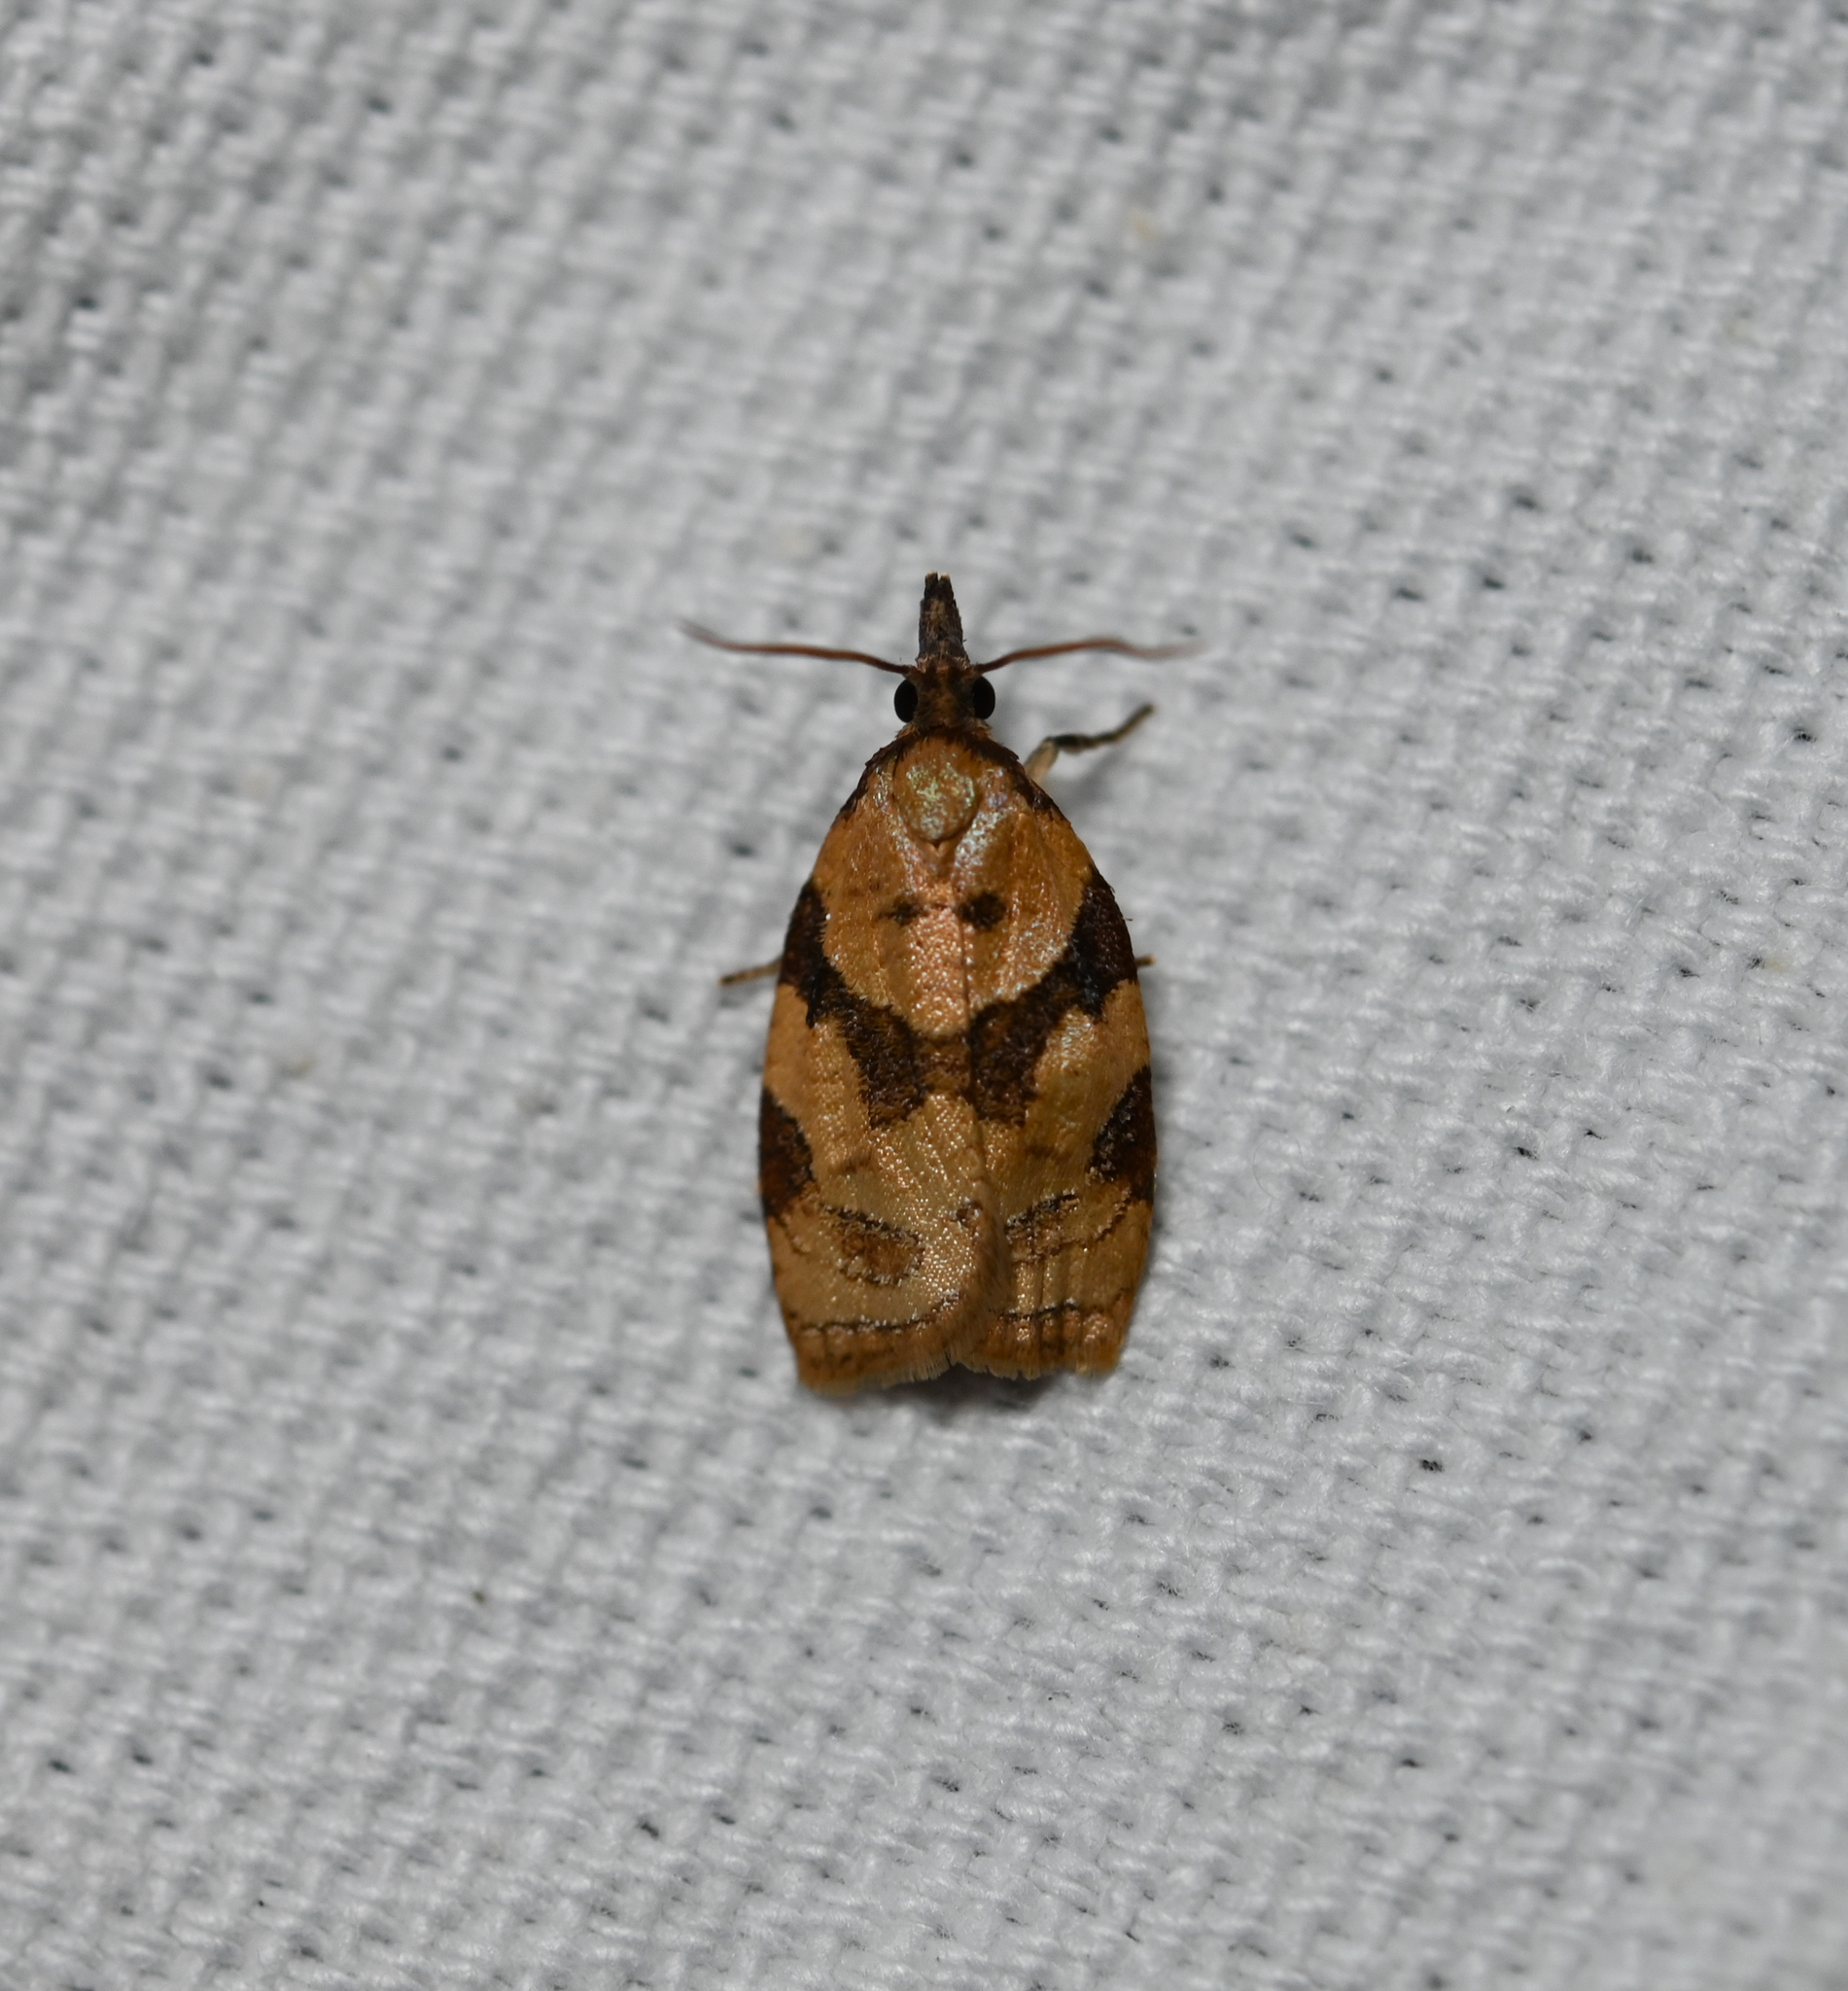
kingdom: Animalia
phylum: Arthropoda
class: Insecta
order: Lepidoptera
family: Tortricidae
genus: Cenopis
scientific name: Cenopis diluticostana
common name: Spring dead-leaf roller moth
